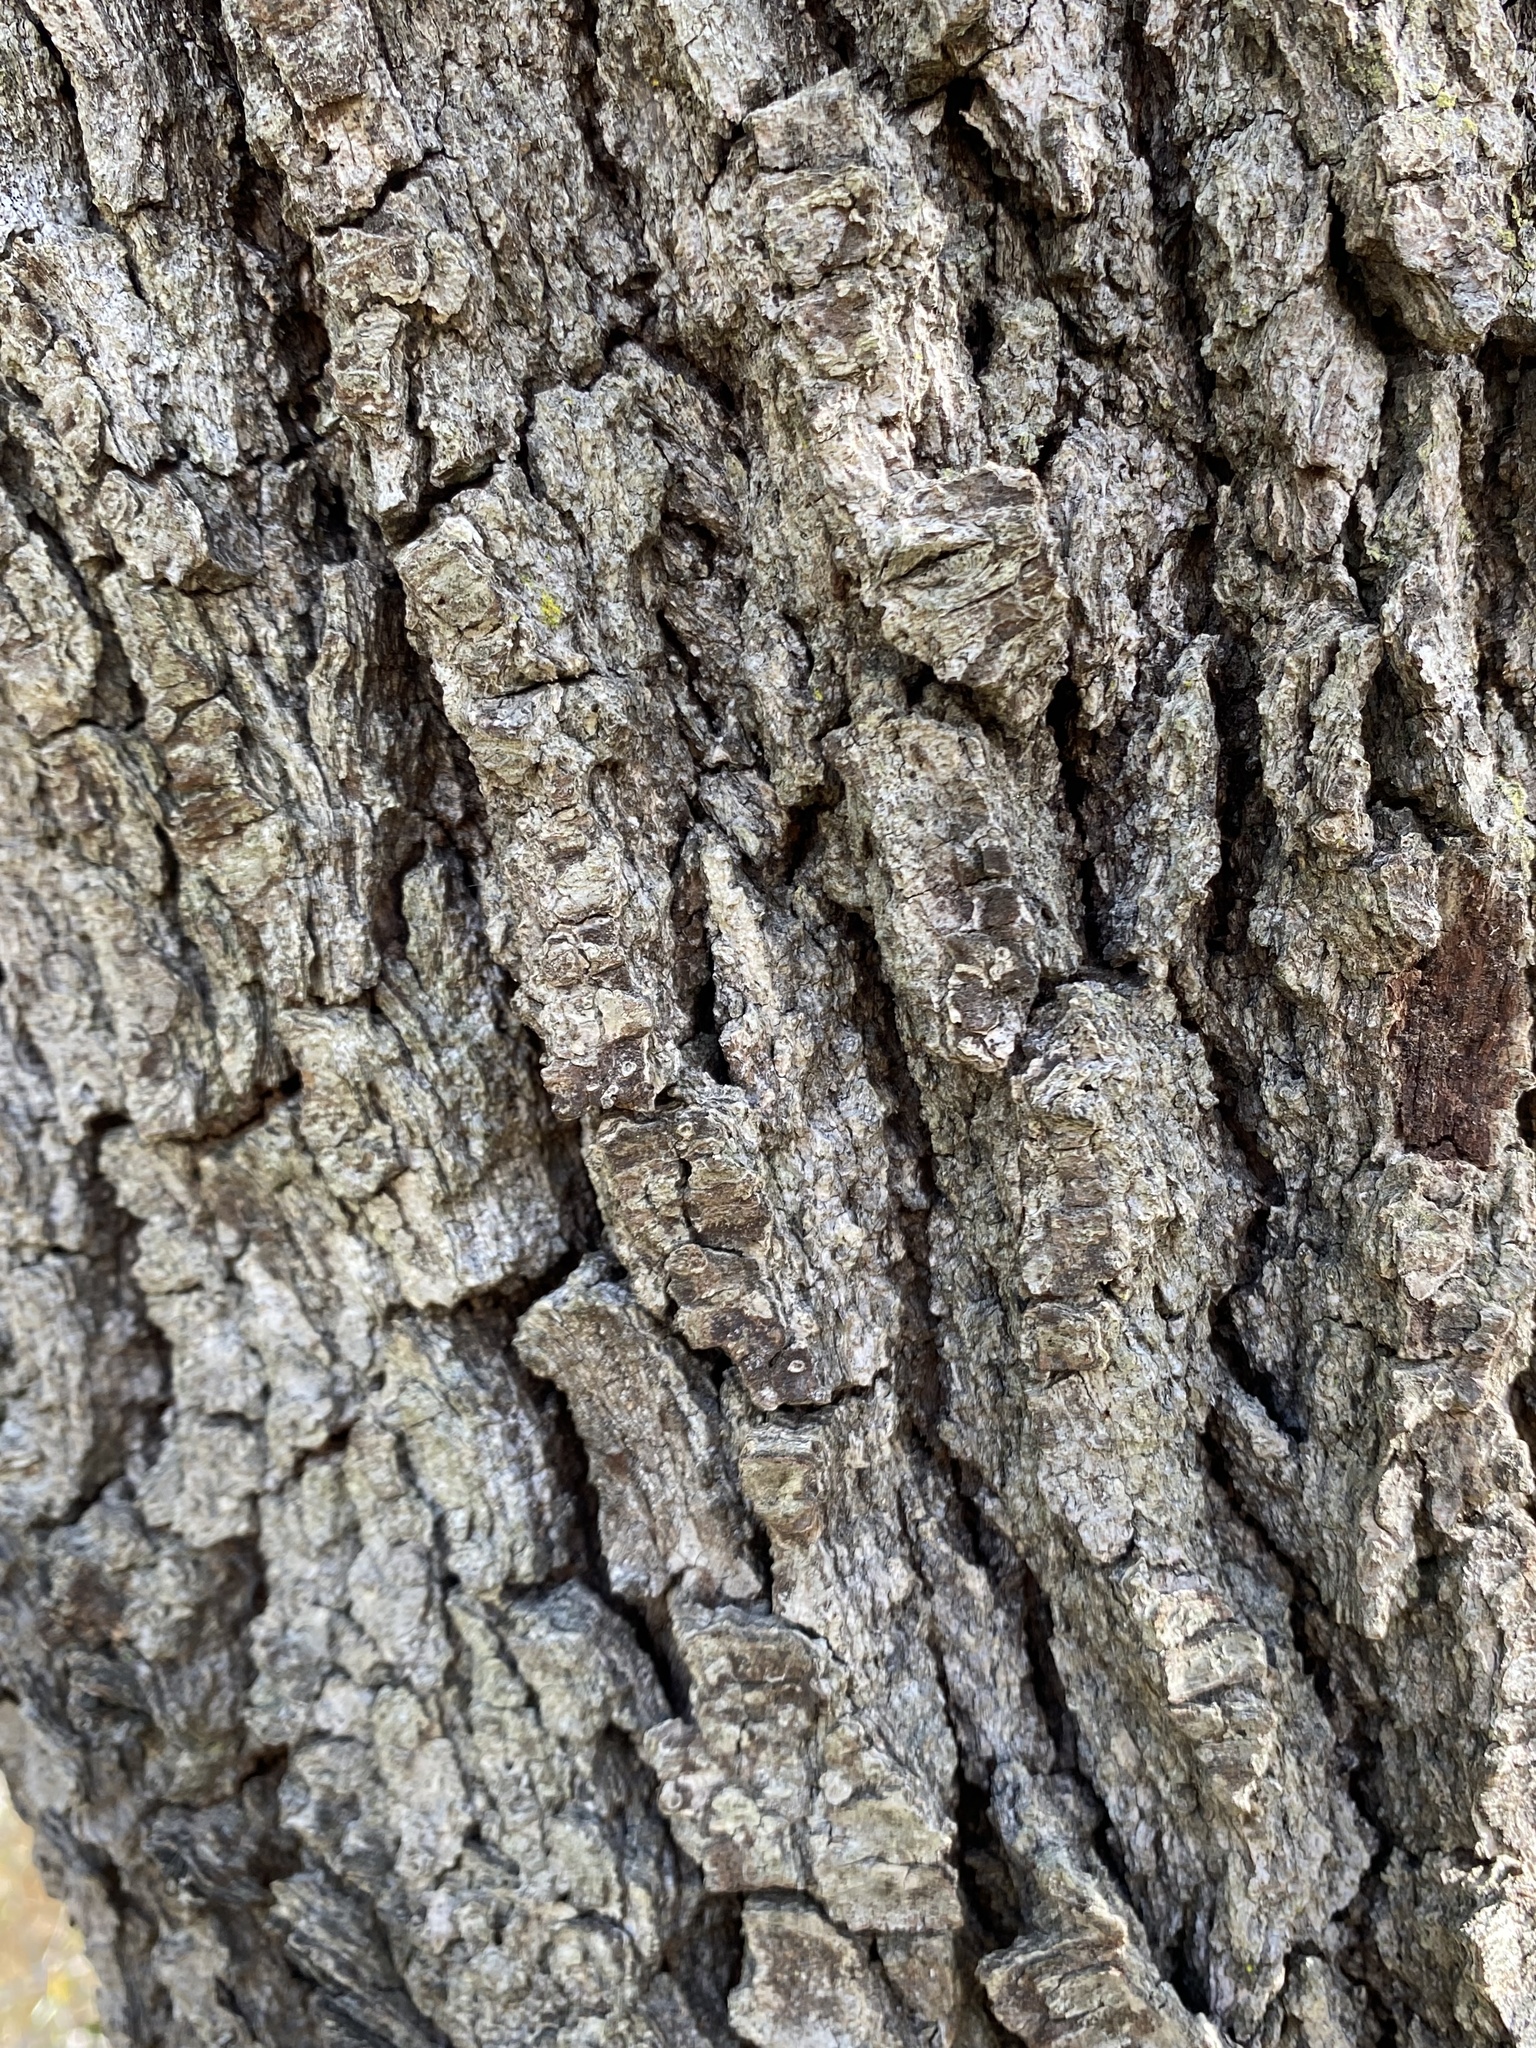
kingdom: Plantae
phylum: Tracheophyta
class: Magnoliopsida
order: Fagales
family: Fagaceae
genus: Quercus
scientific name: Quercus virginiana
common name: Southern live oak
